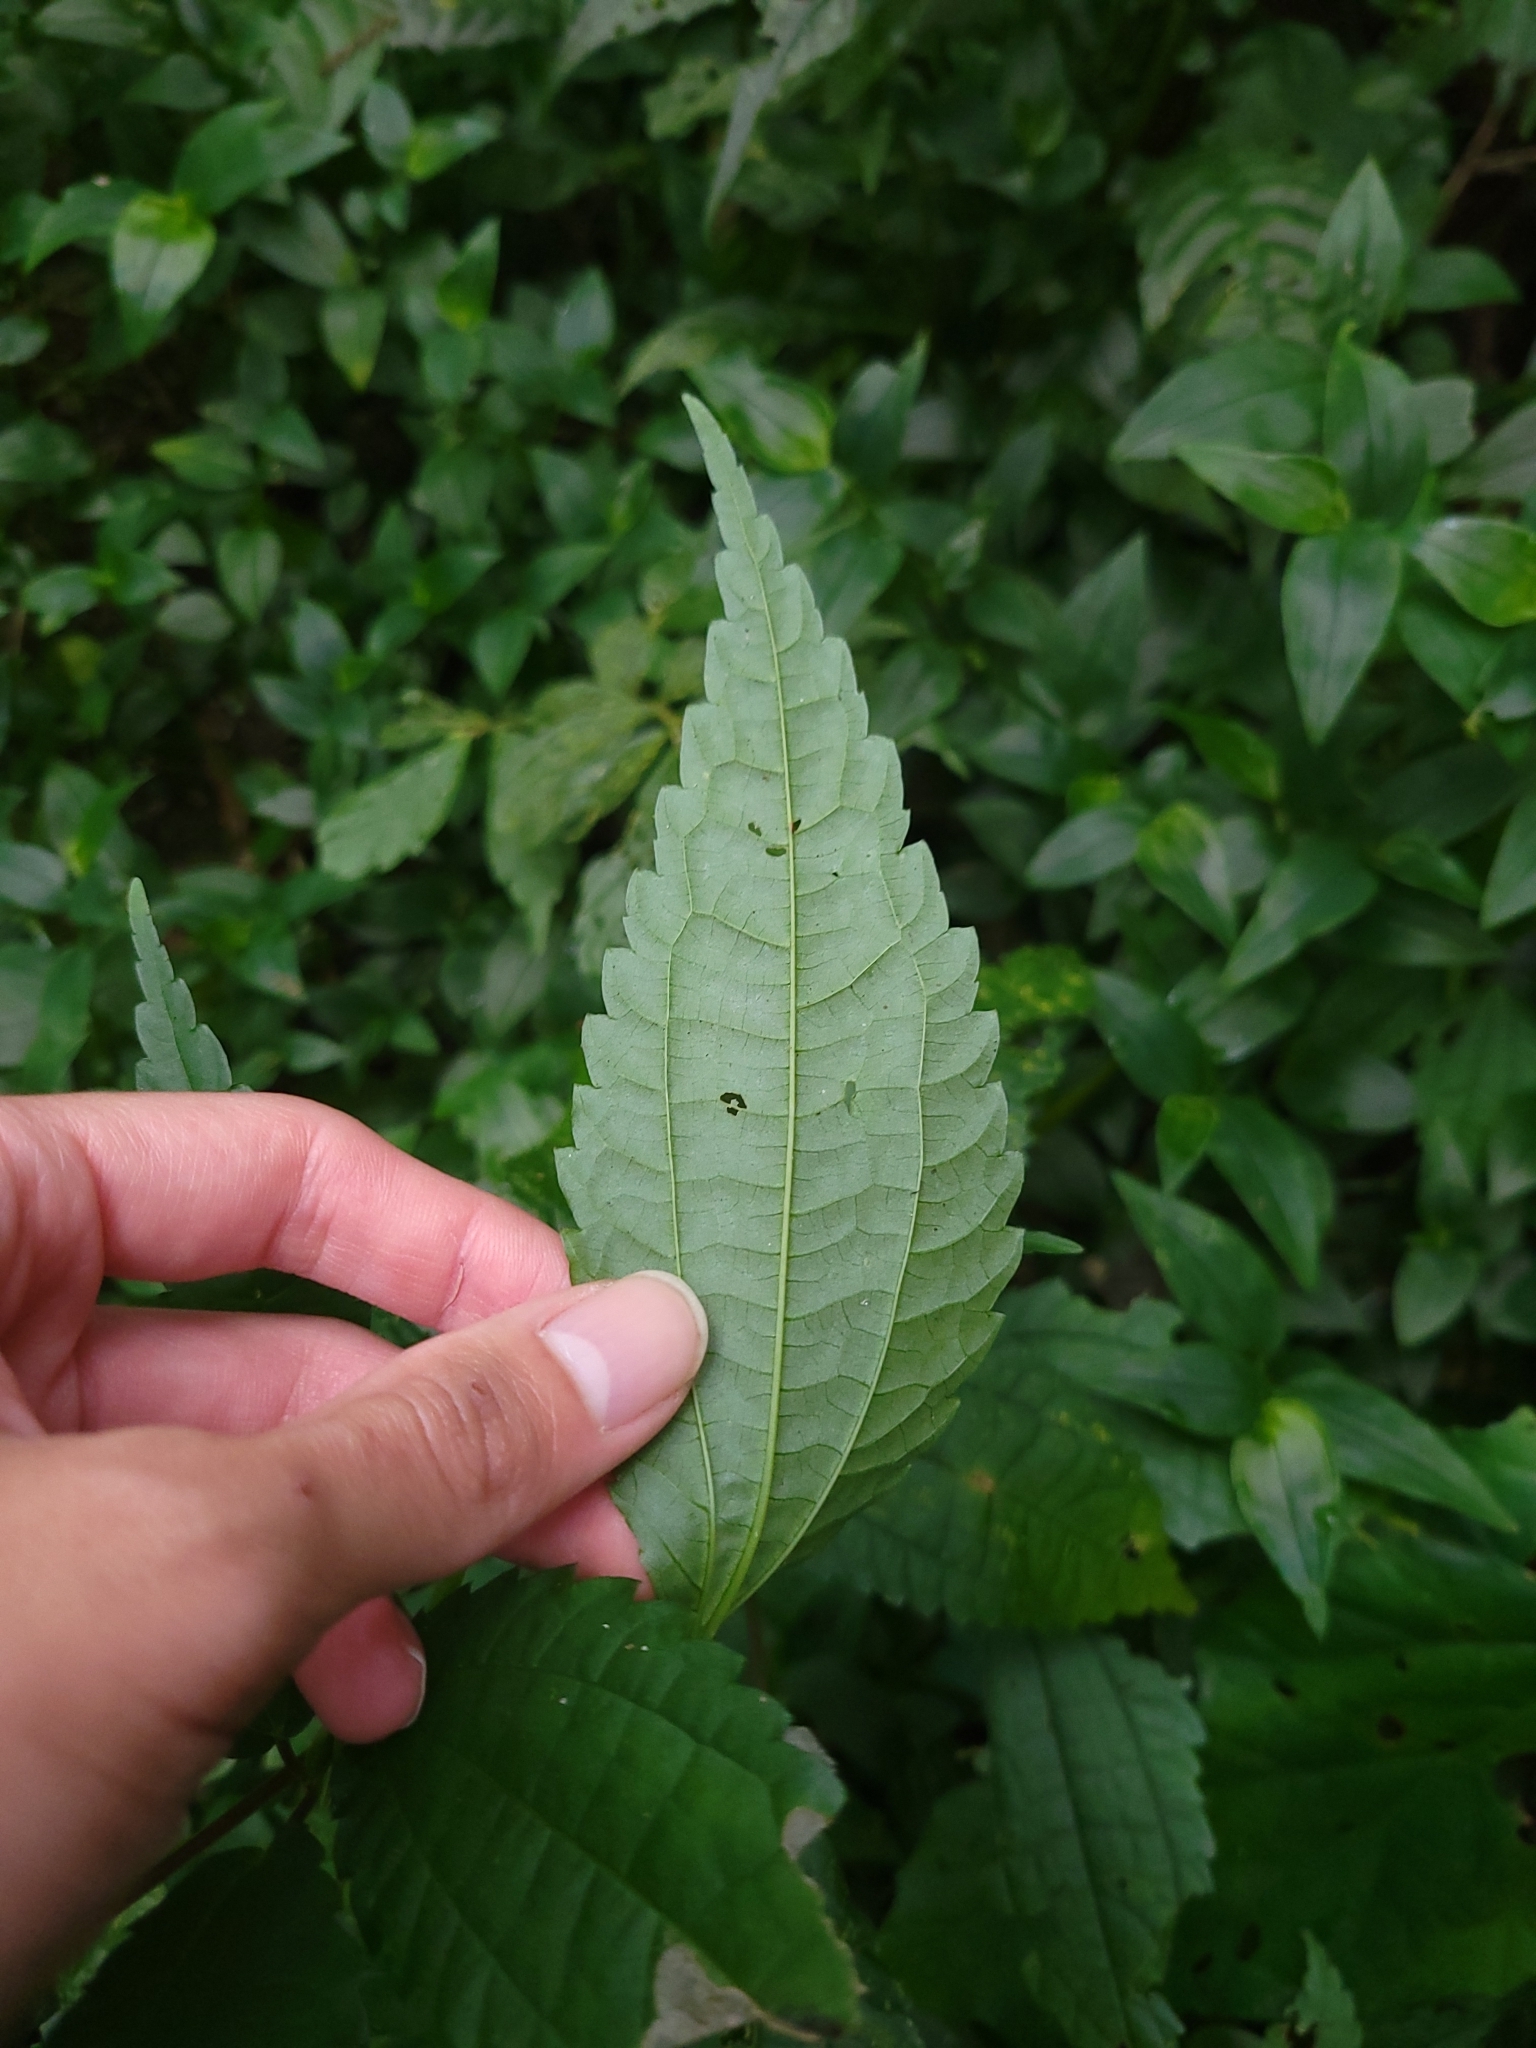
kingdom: Plantae
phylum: Tracheophyta
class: Magnoliopsida
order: Rosales
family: Urticaceae
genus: Pilea
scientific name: Pilea angulata
